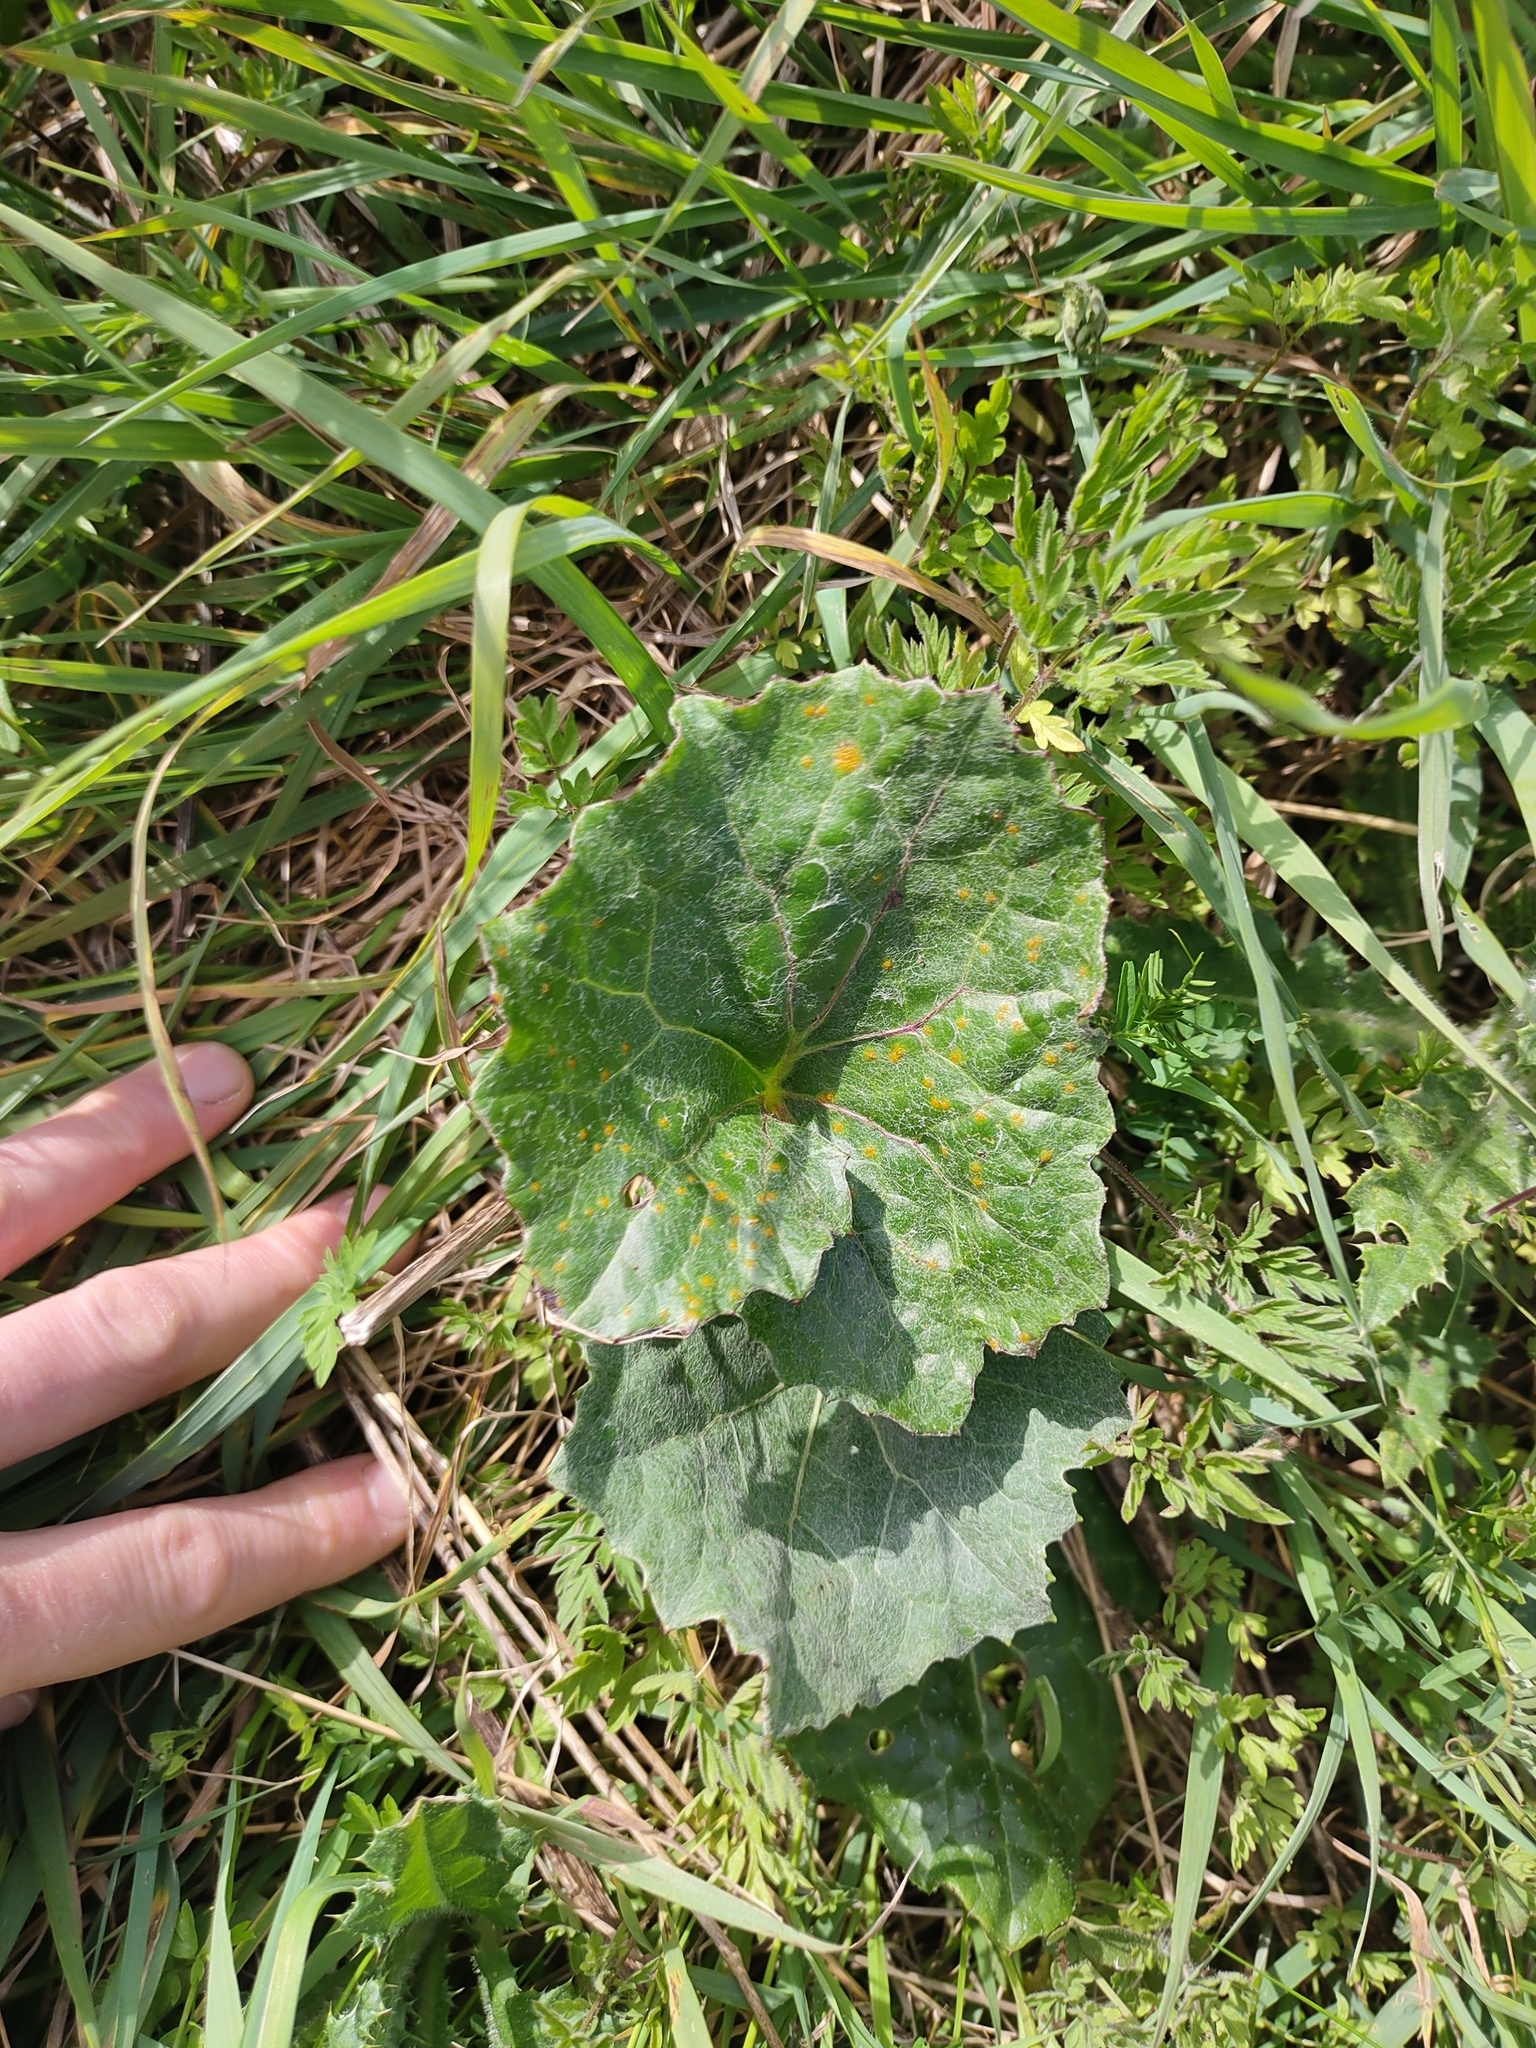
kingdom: Plantae
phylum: Tracheophyta
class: Magnoliopsida
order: Asterales
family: Asteraceae
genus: Tussilago
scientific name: Tussilago farfara
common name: Coltsfoot
